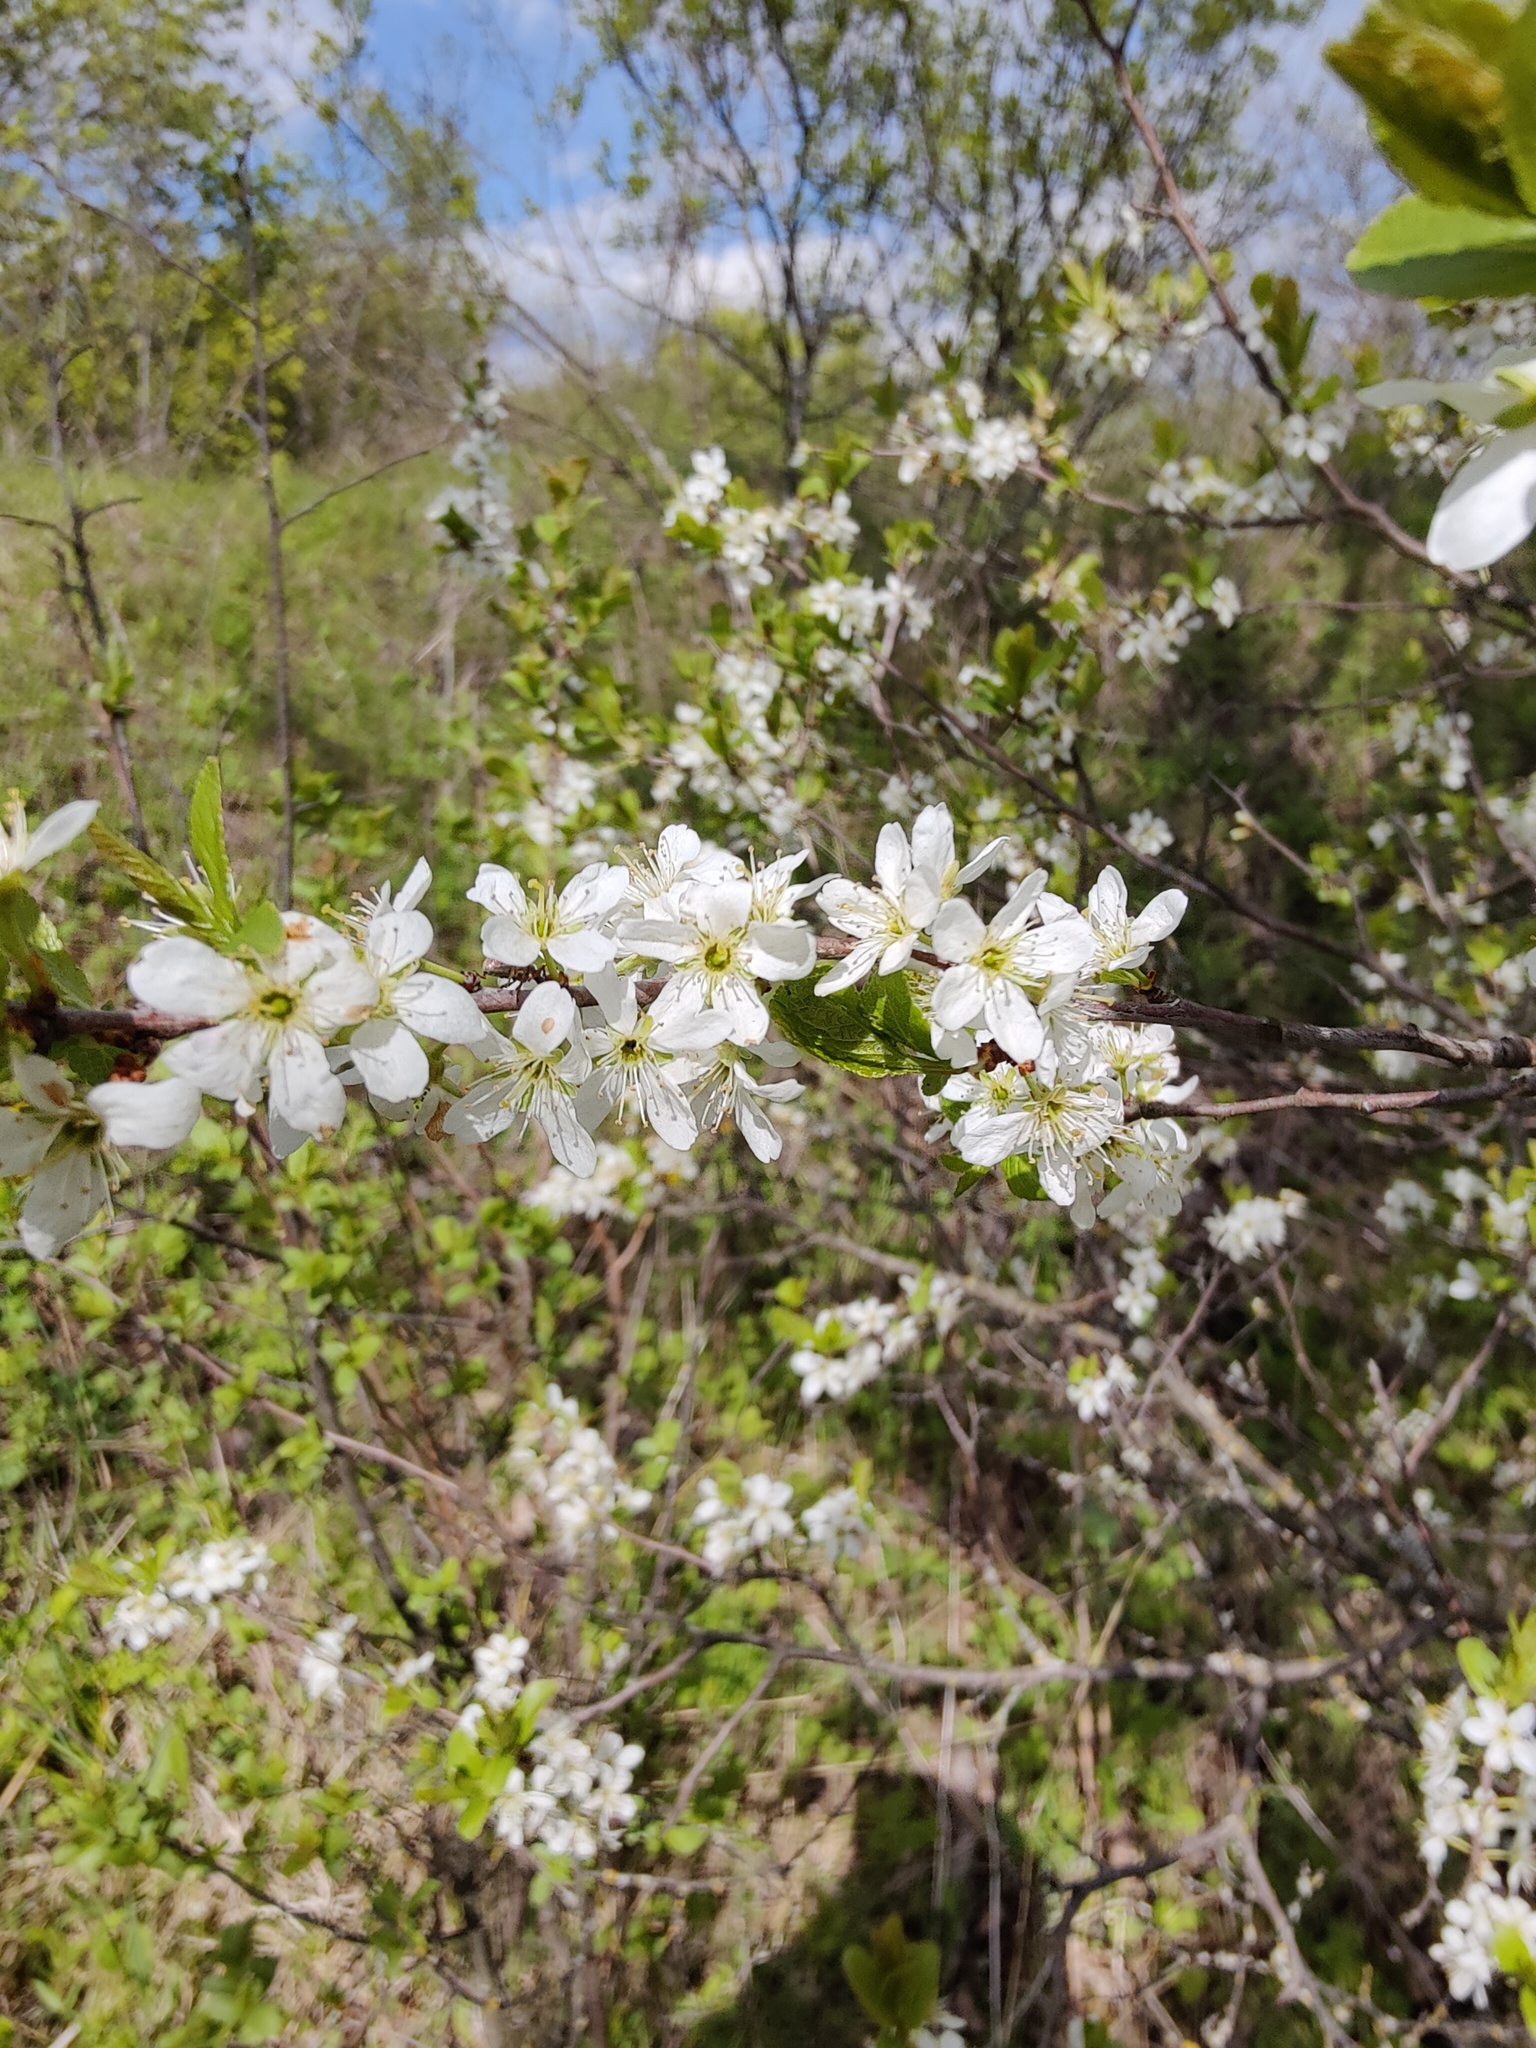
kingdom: Plantae
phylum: Tracheophyta
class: Magnoliopsida
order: Rosales
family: Rosaceae
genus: Prunus
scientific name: Prunus spinosa
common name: Blackthorn
